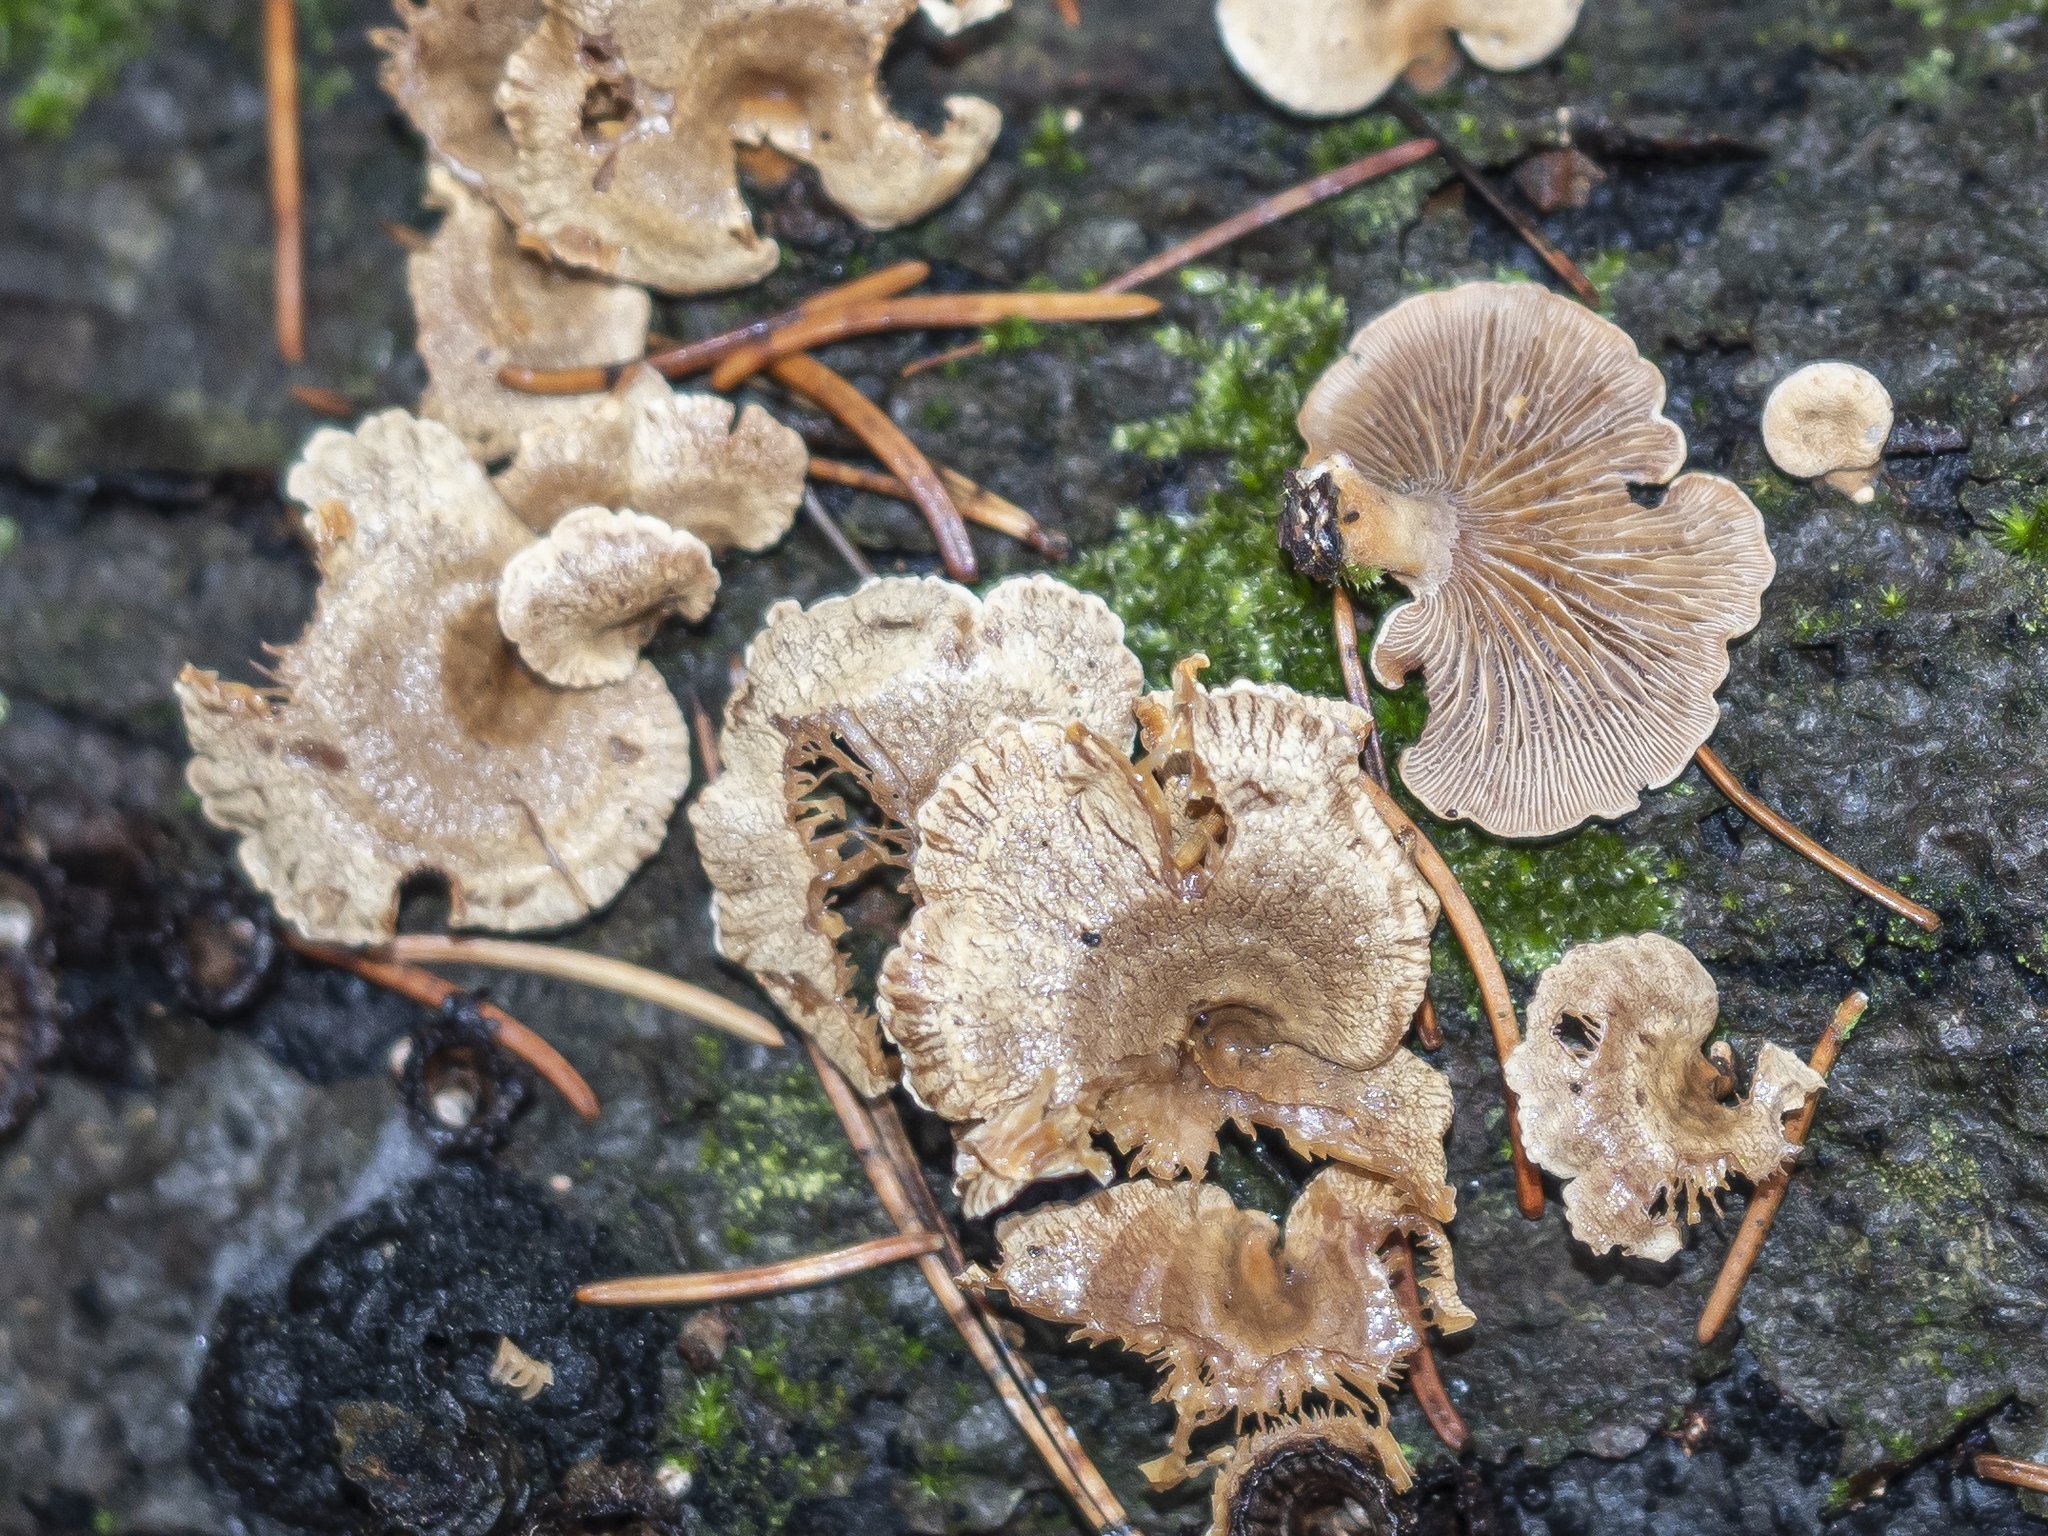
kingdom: Fungi
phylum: Basidiomycota
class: Agaricomycetes
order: Agaricales
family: Mycenaceae
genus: Panellus
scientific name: Panellus stipticus
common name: Bitter oysterling
